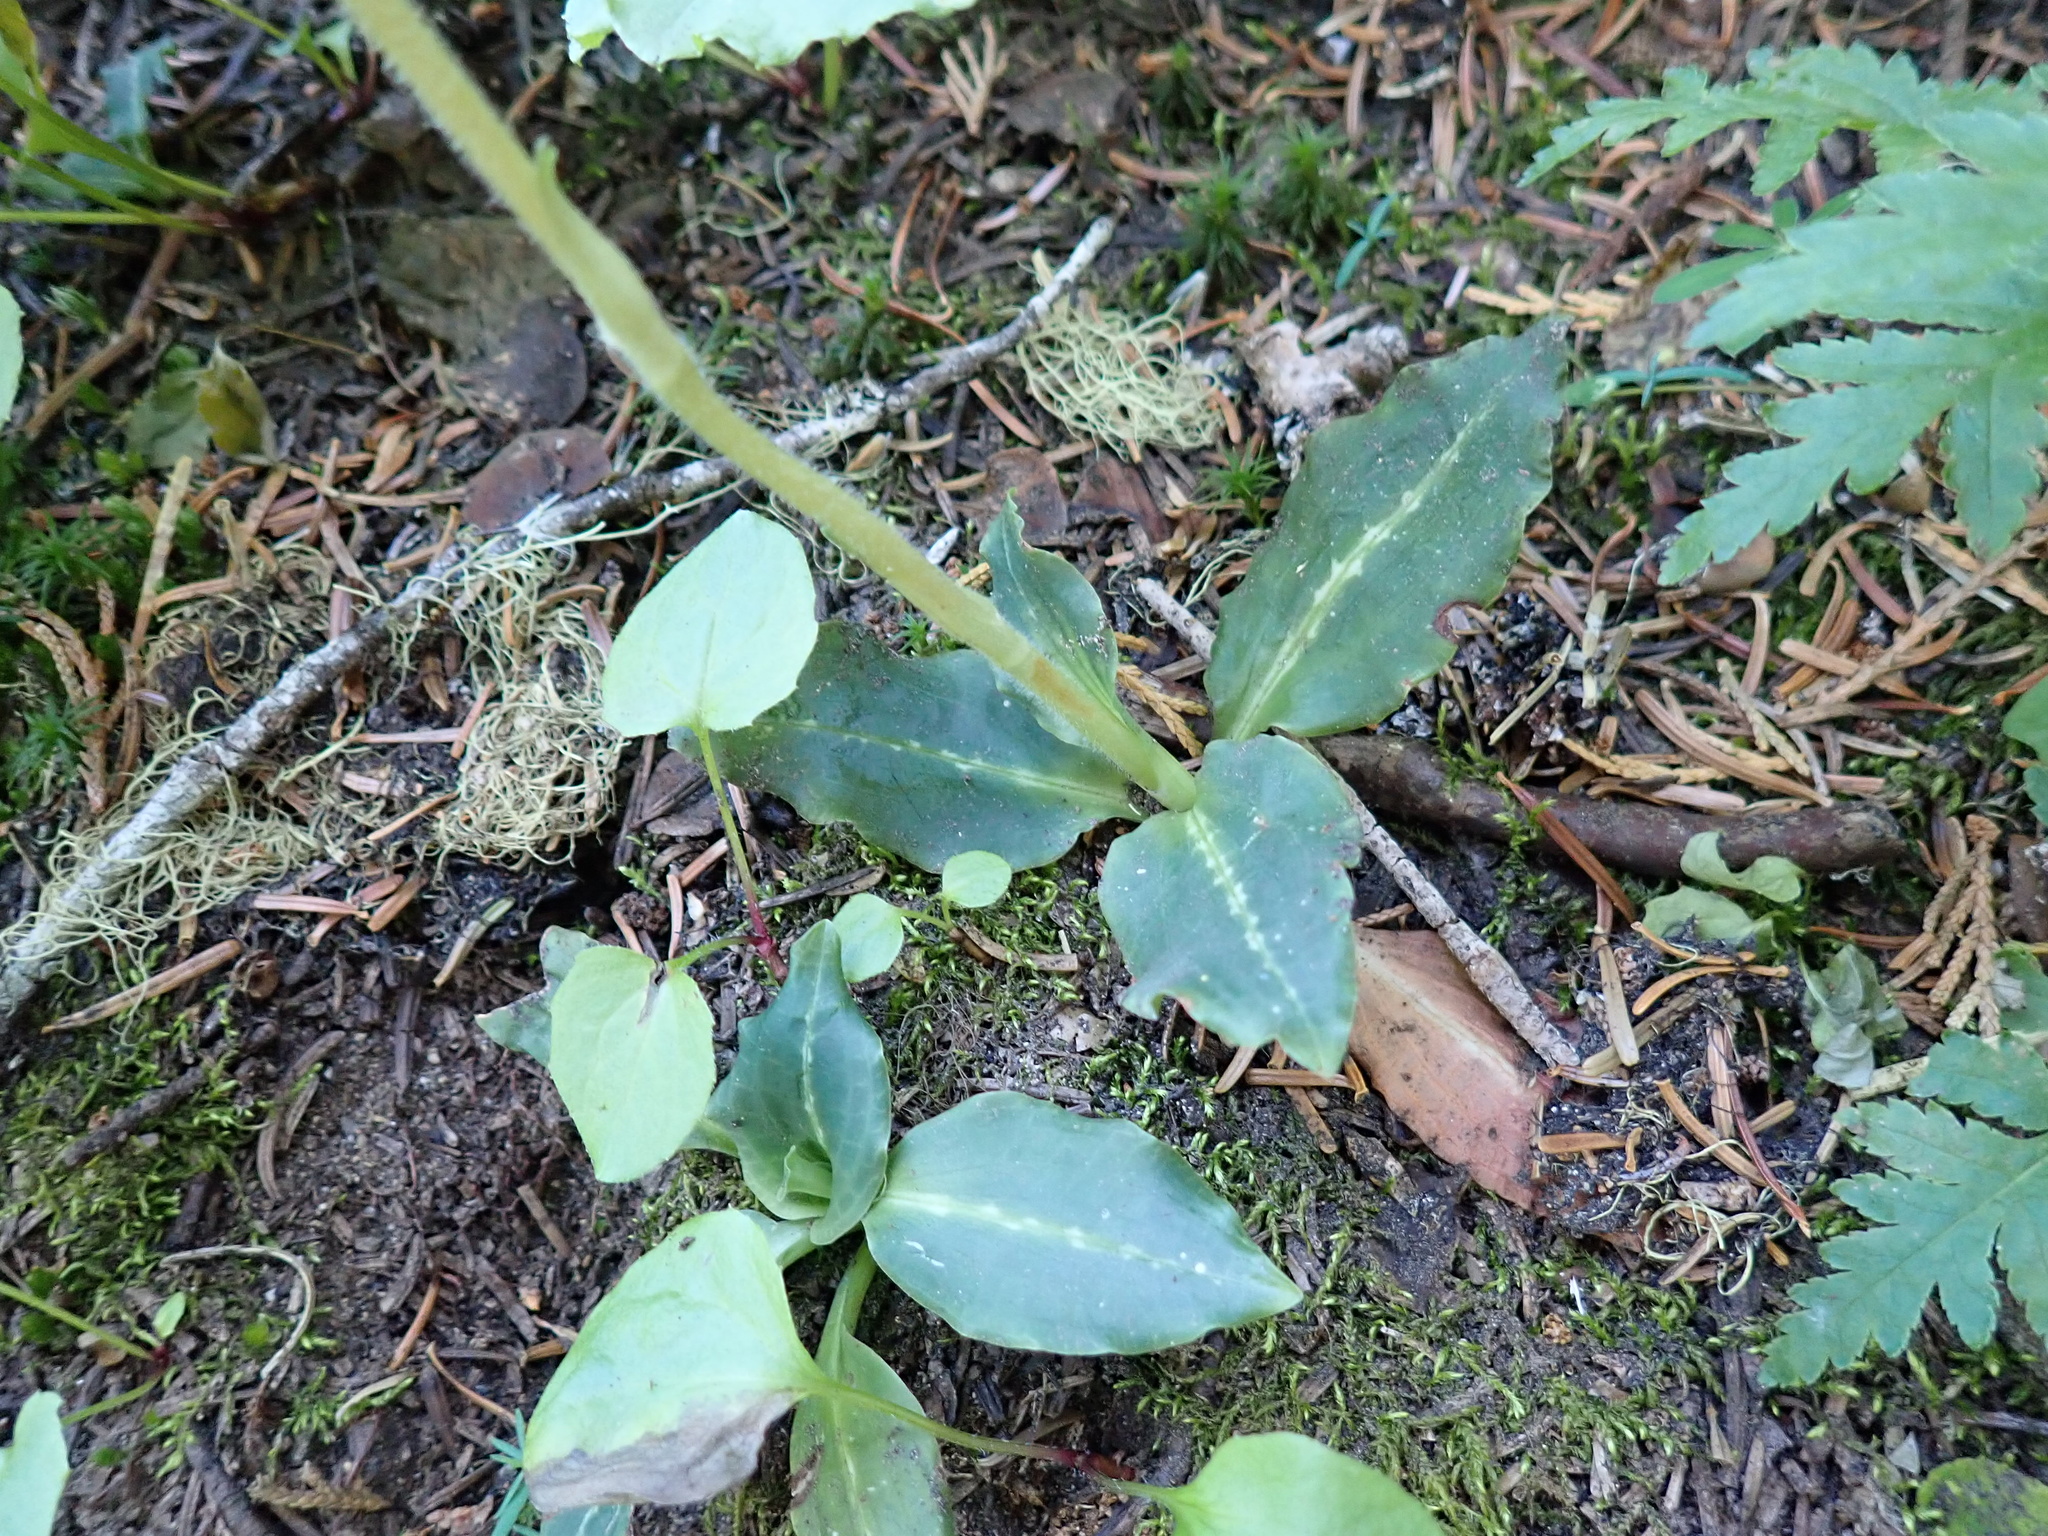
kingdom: Plantae
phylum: Tracheophyta
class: Liliopsida
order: Asparagales
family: Orchidaceae
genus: Goodyera
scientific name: Goodyera oblongifolia
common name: Giant rattlesnake-plantain
